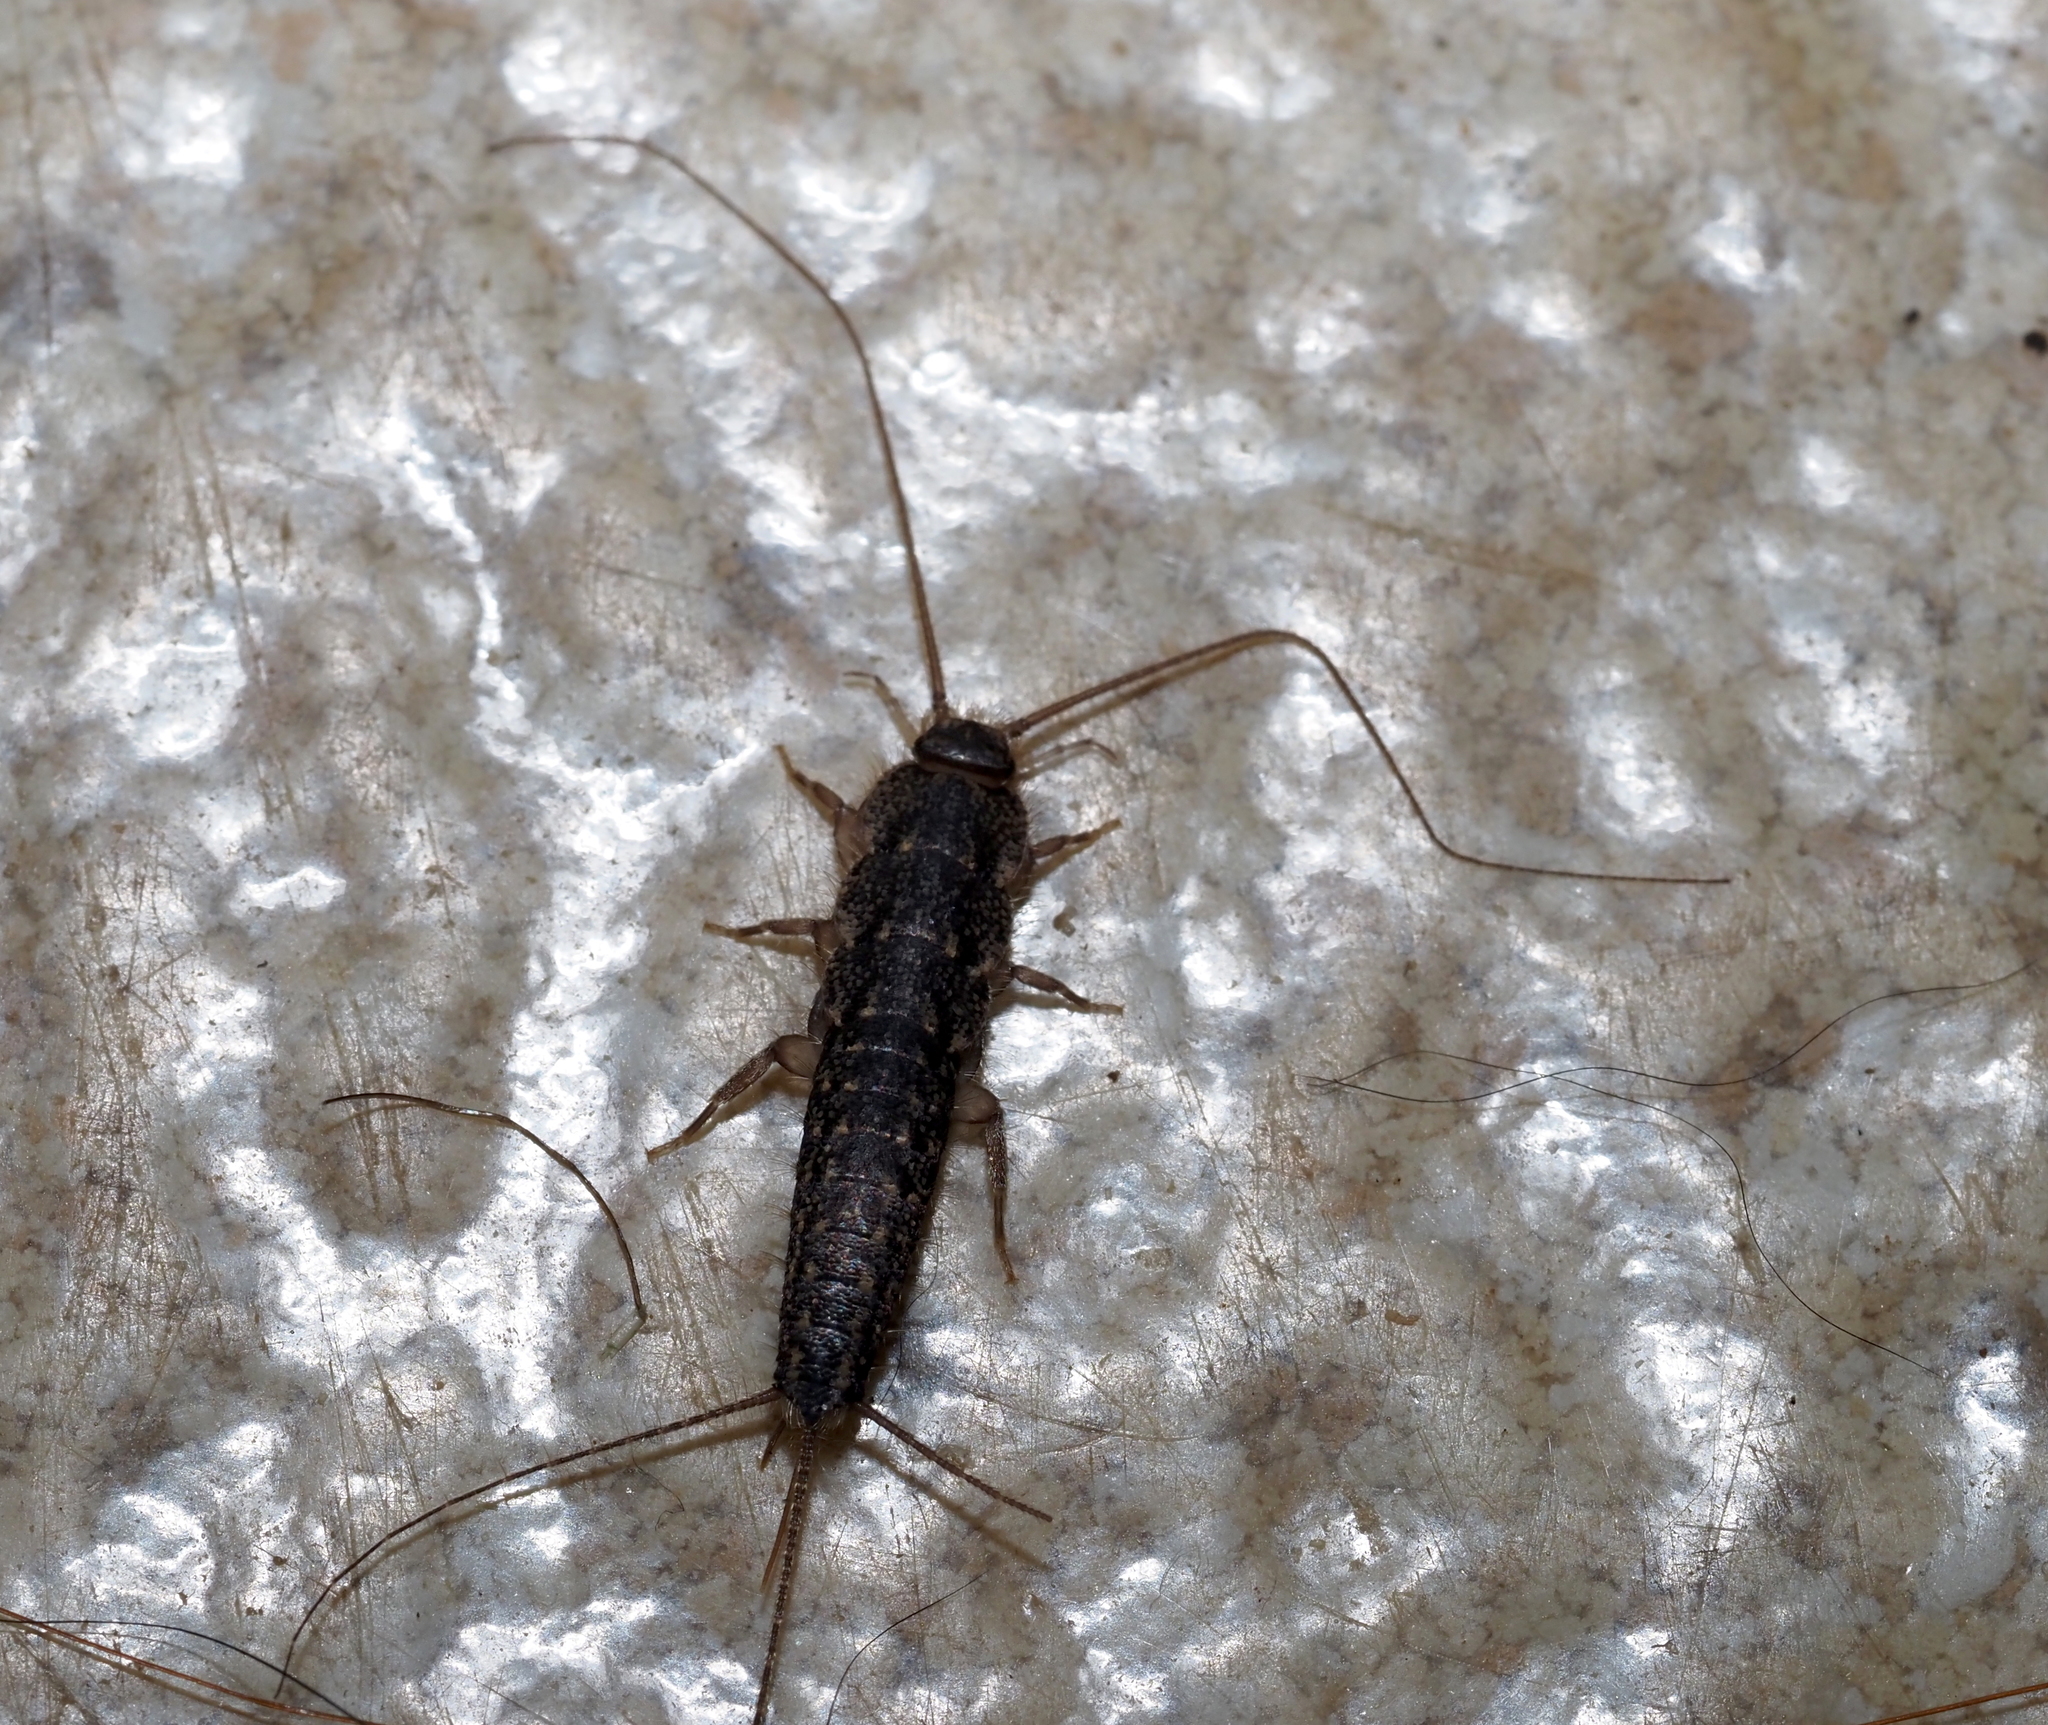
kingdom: Animalia
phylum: Arthropoda
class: Insecta
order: Zygentoma
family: Lepismatidae
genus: Ctenolepisma
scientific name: Ctenolepisma lineata
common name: Four-lined silverfish
